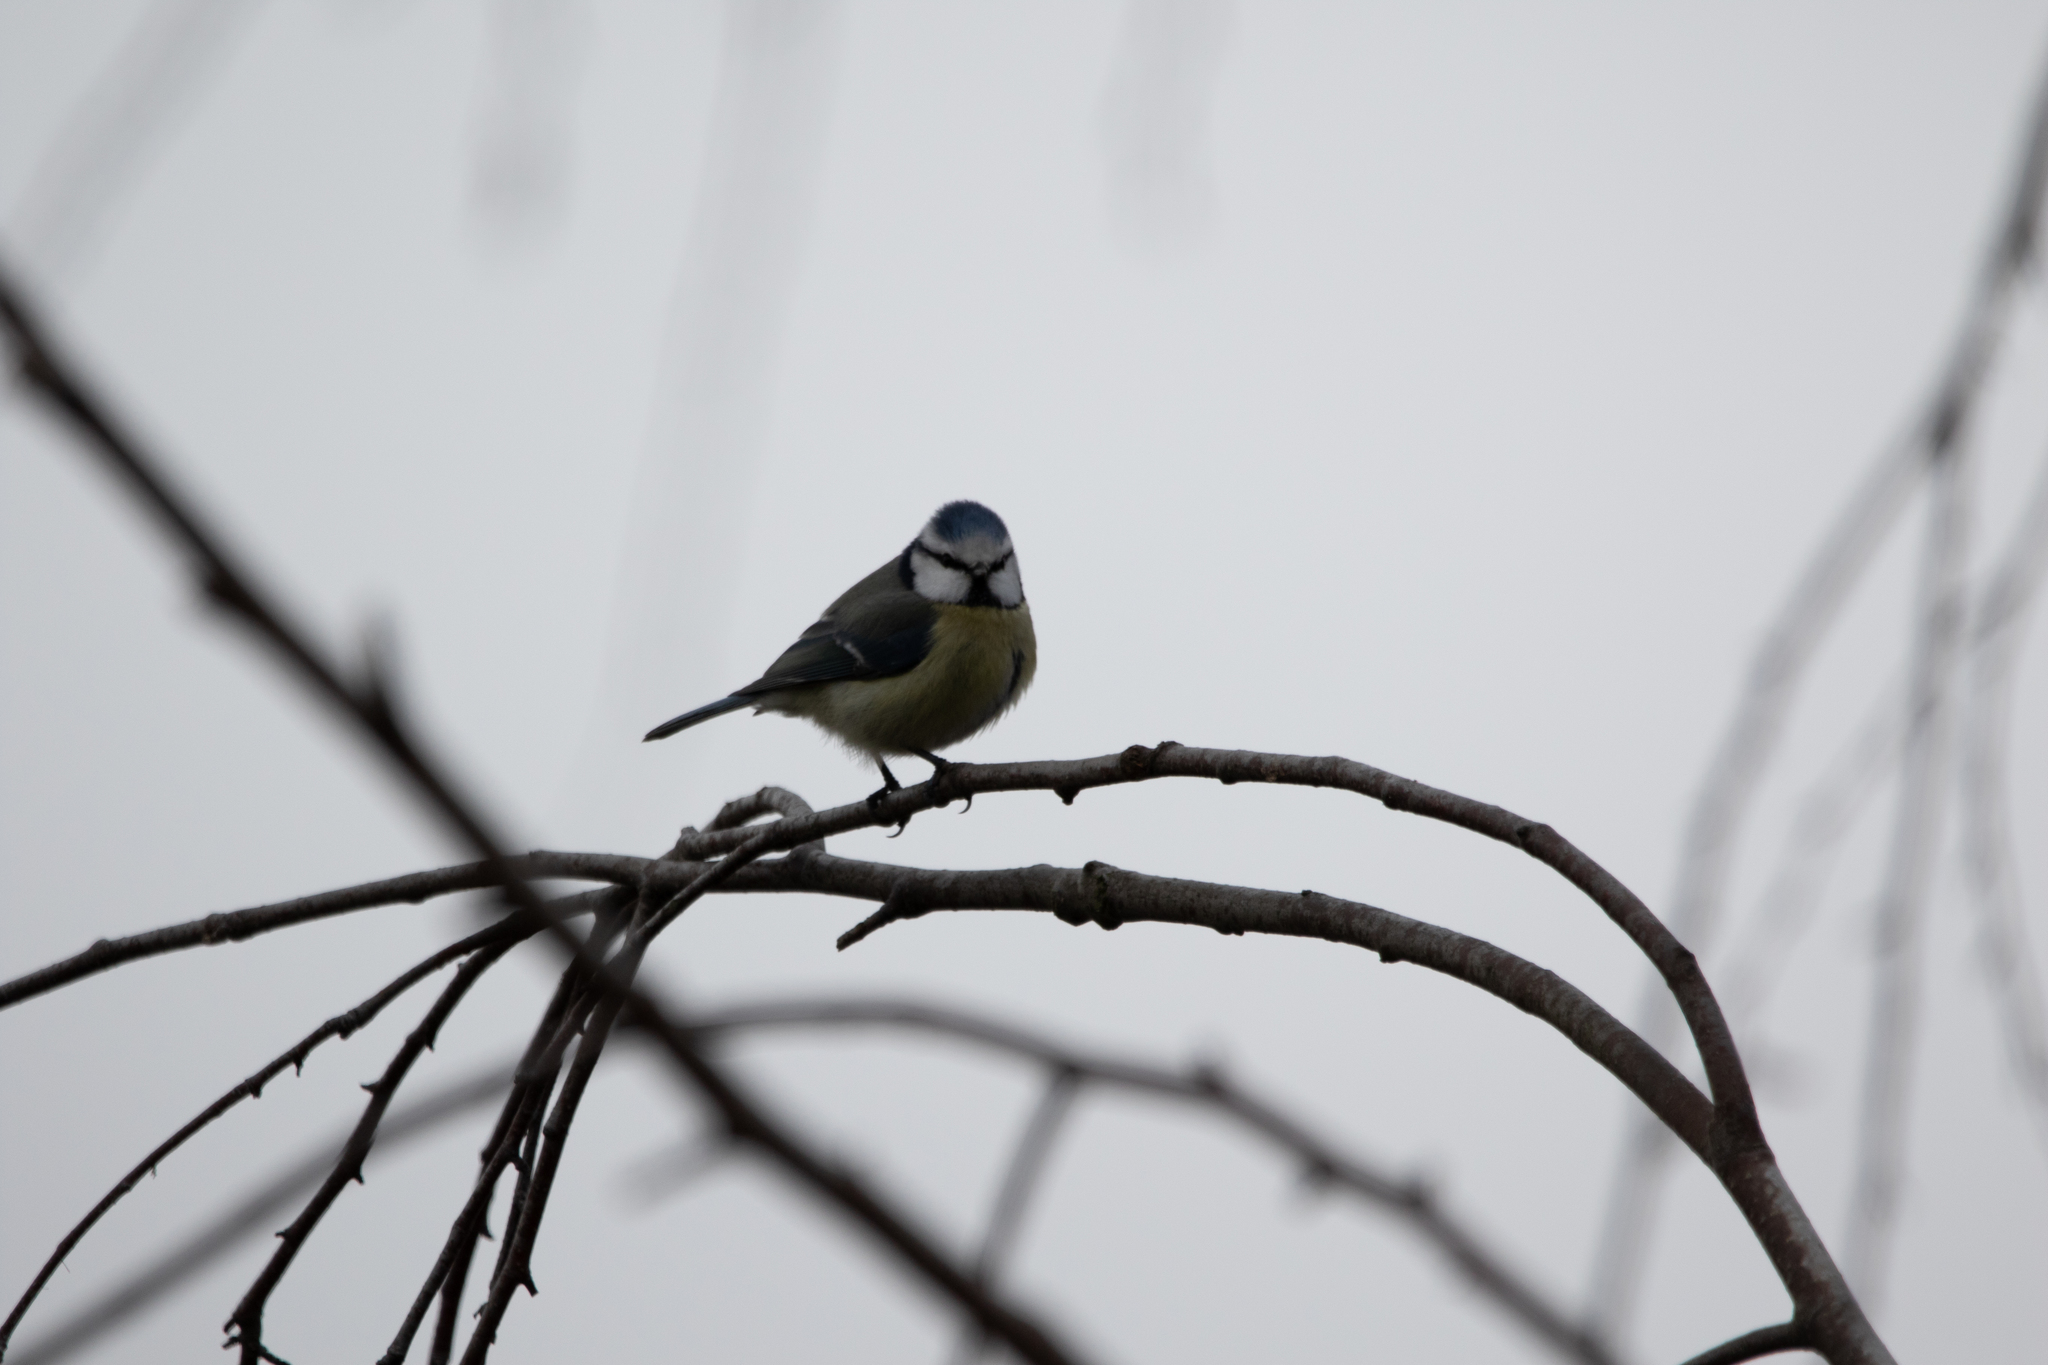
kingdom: Animalia
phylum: Chordata
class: Aves
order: Passeriformes
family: Paridae
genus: Cyanistes
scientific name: Cyanistes caeruleus
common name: Eurasian blue tit
